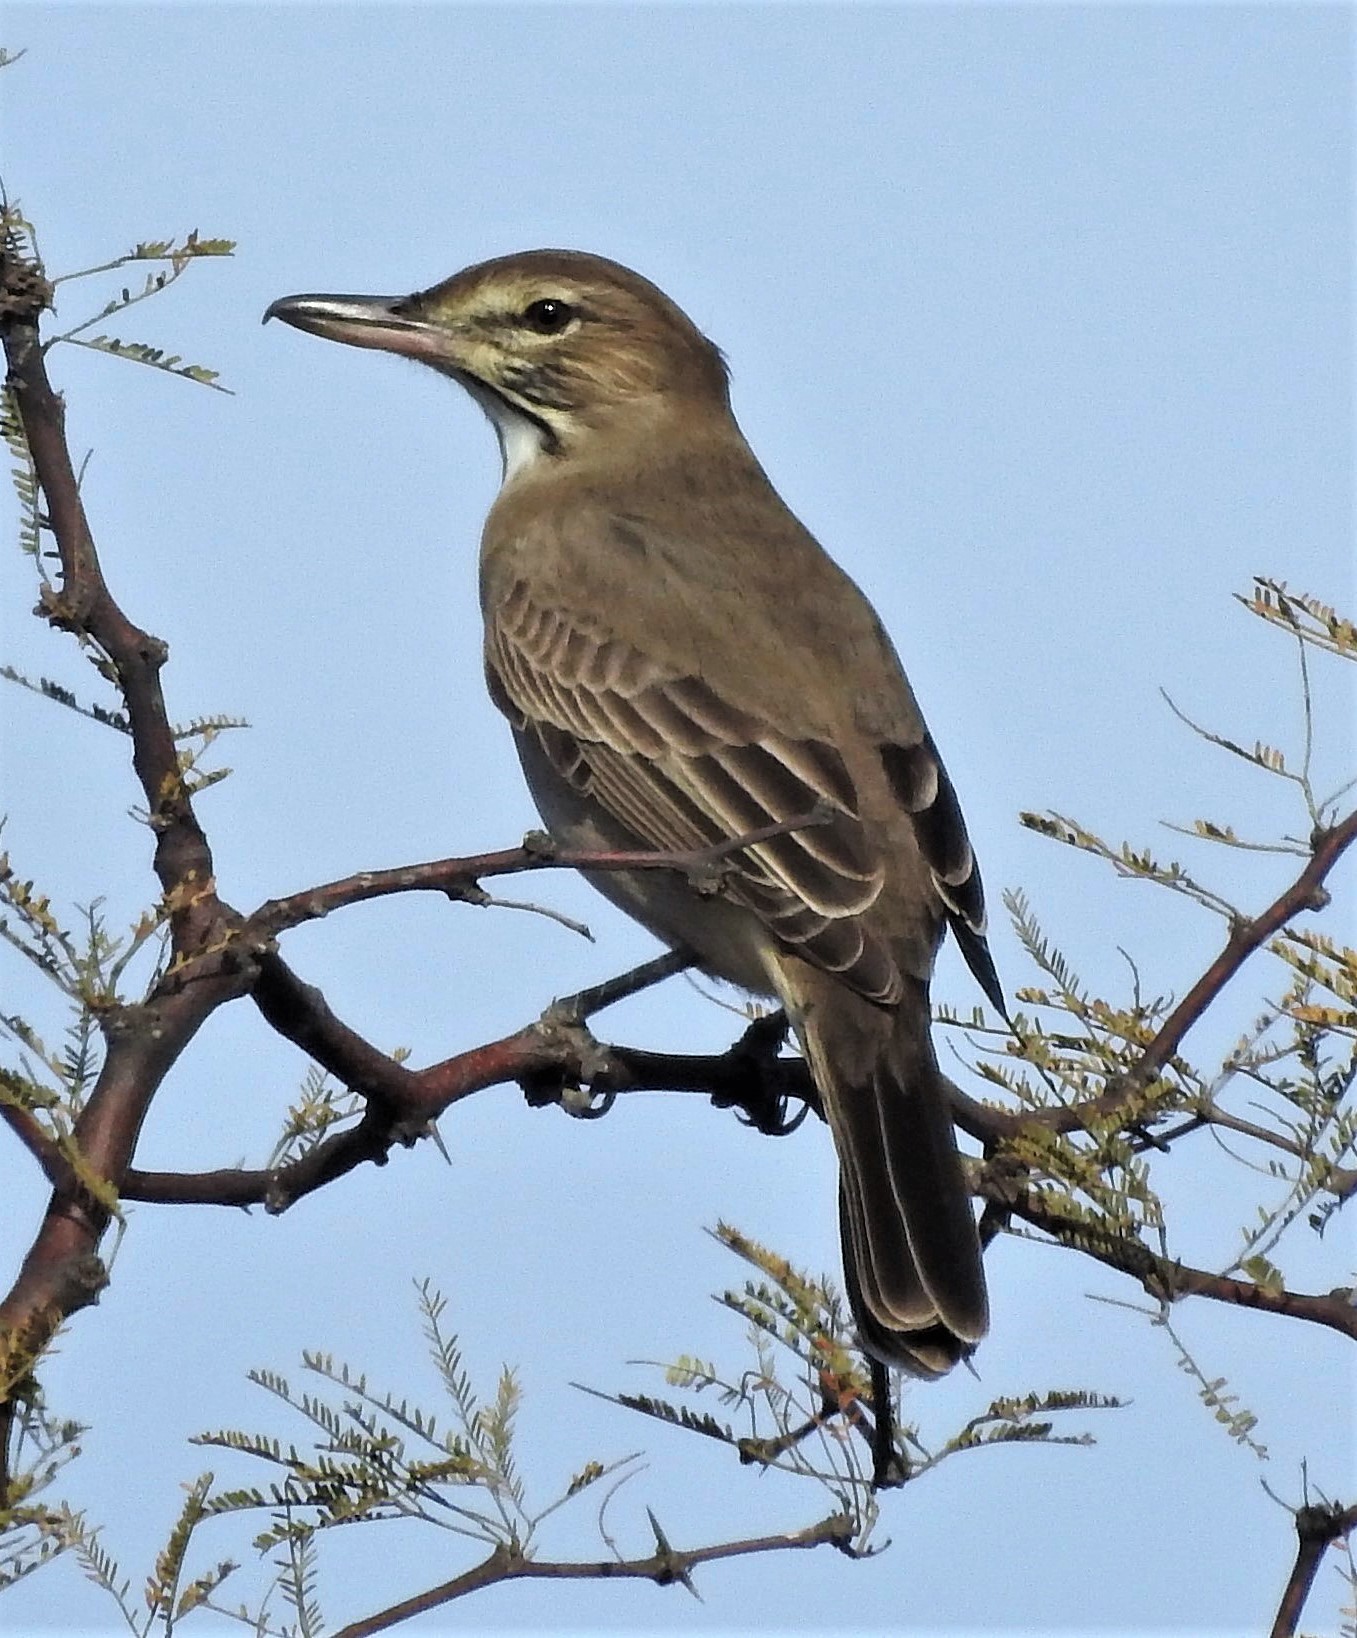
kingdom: Animalia
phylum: Chordata
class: Aves
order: Passeriformes
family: Tyrannidae
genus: Agriornis
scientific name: Agriornis micropterus
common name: Grey-bellied shrike-tyrant
